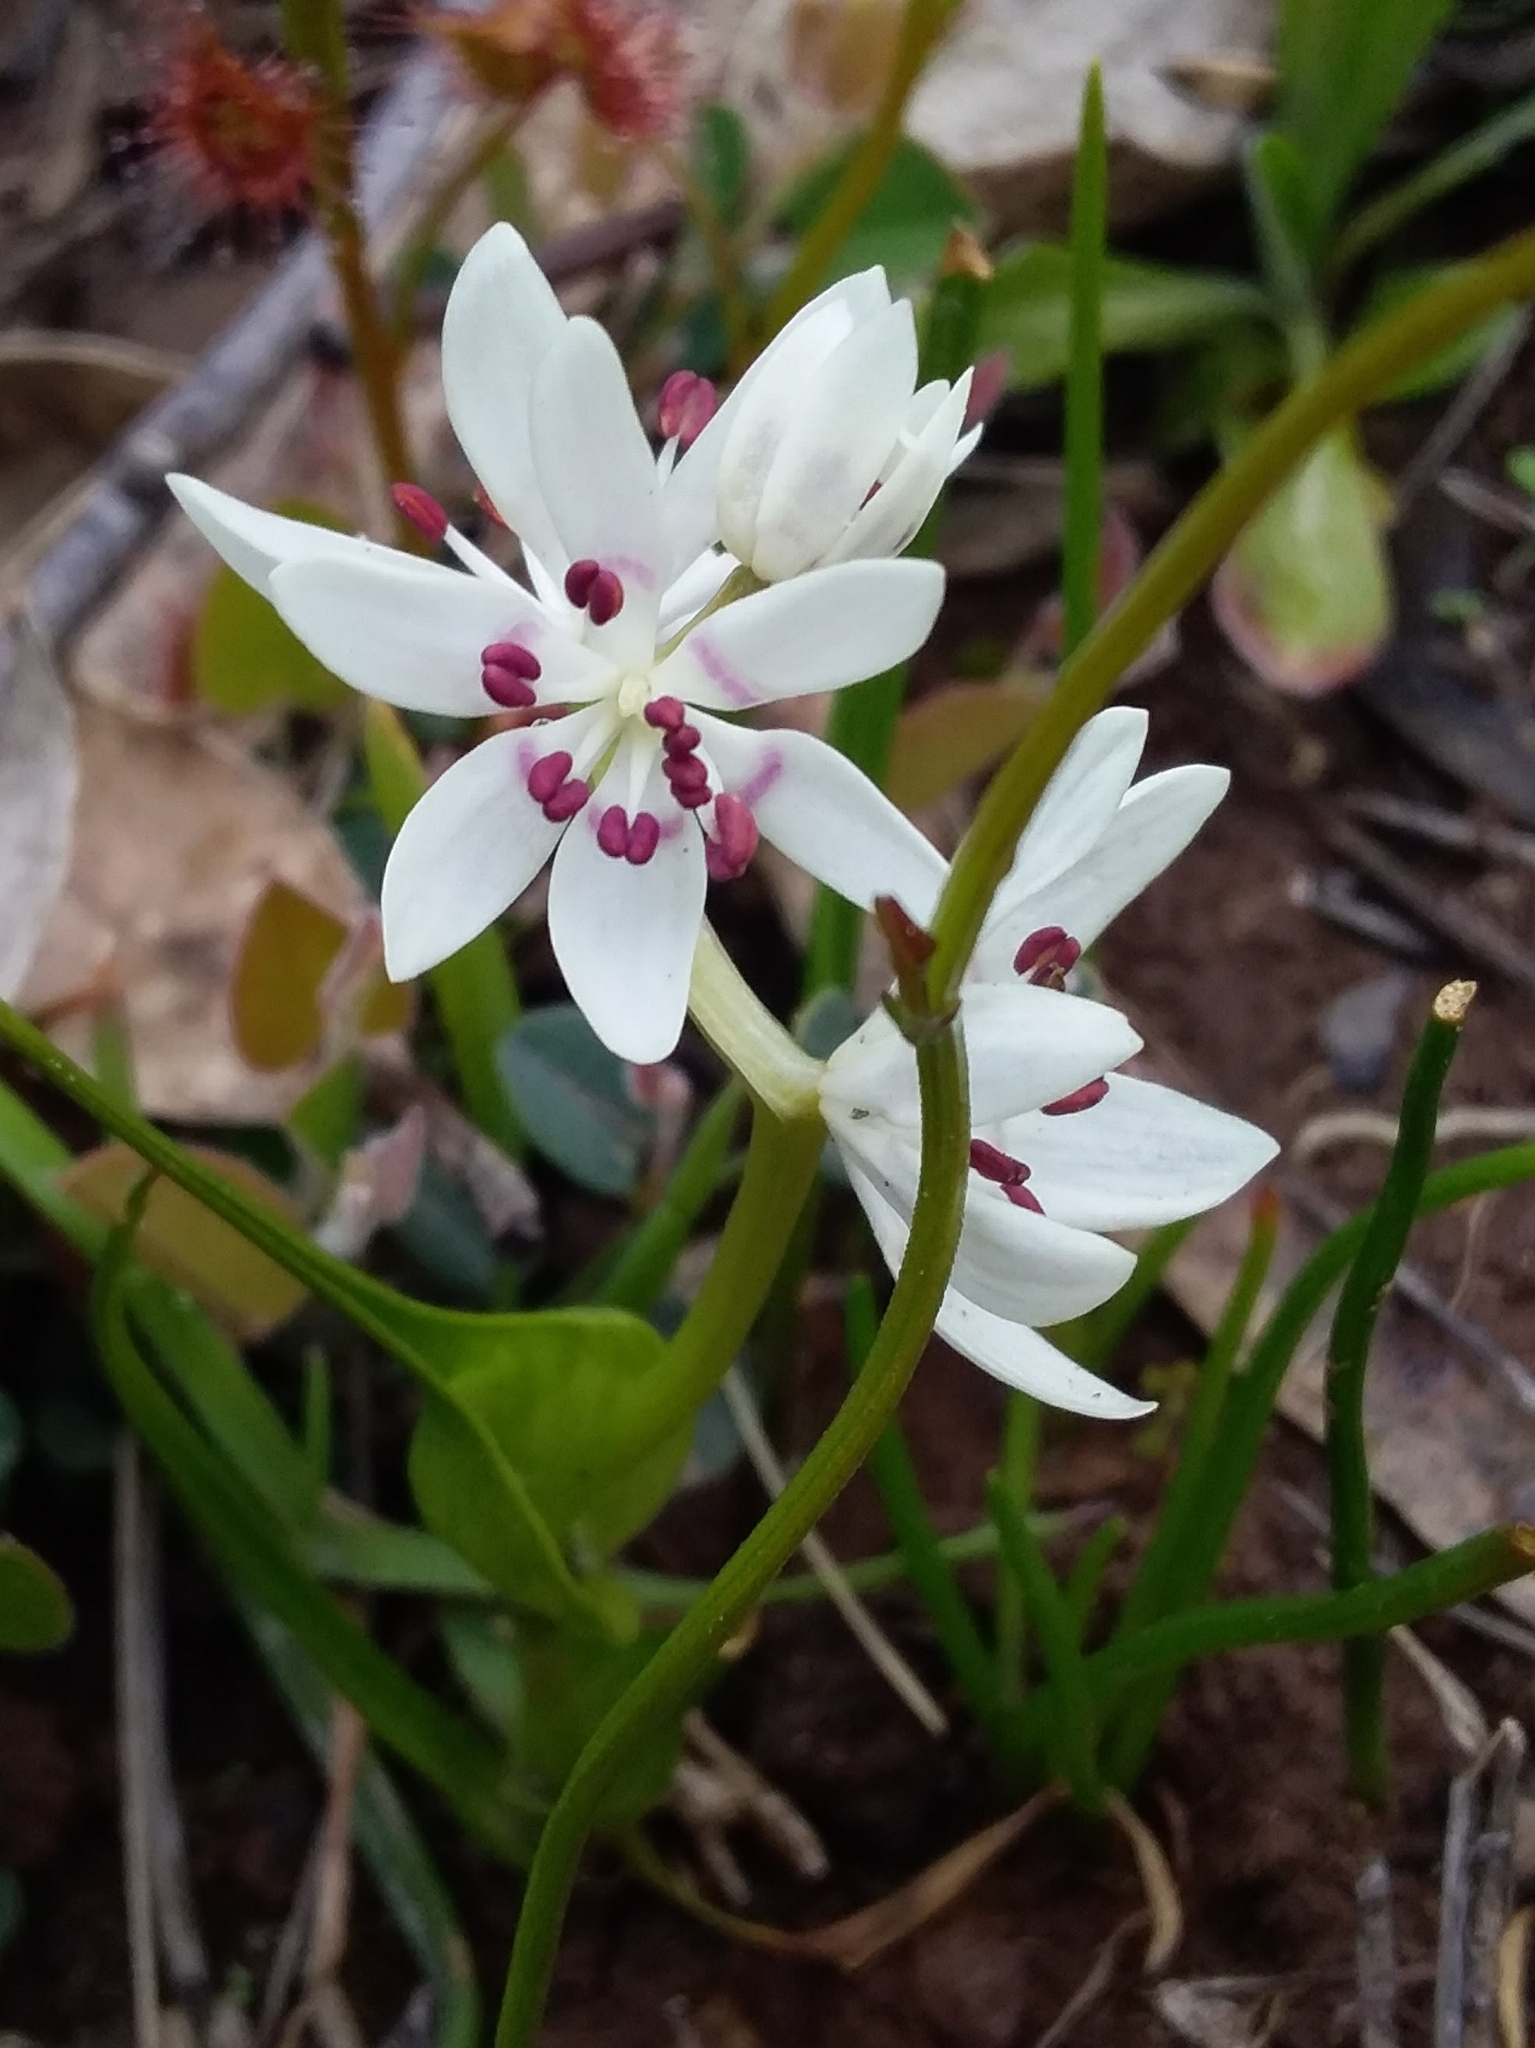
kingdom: Plantae
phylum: Tracheophyta
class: Liliopsida
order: Liliales
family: Colchicaceae
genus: Wurmbea
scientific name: Wurmbea dioica
